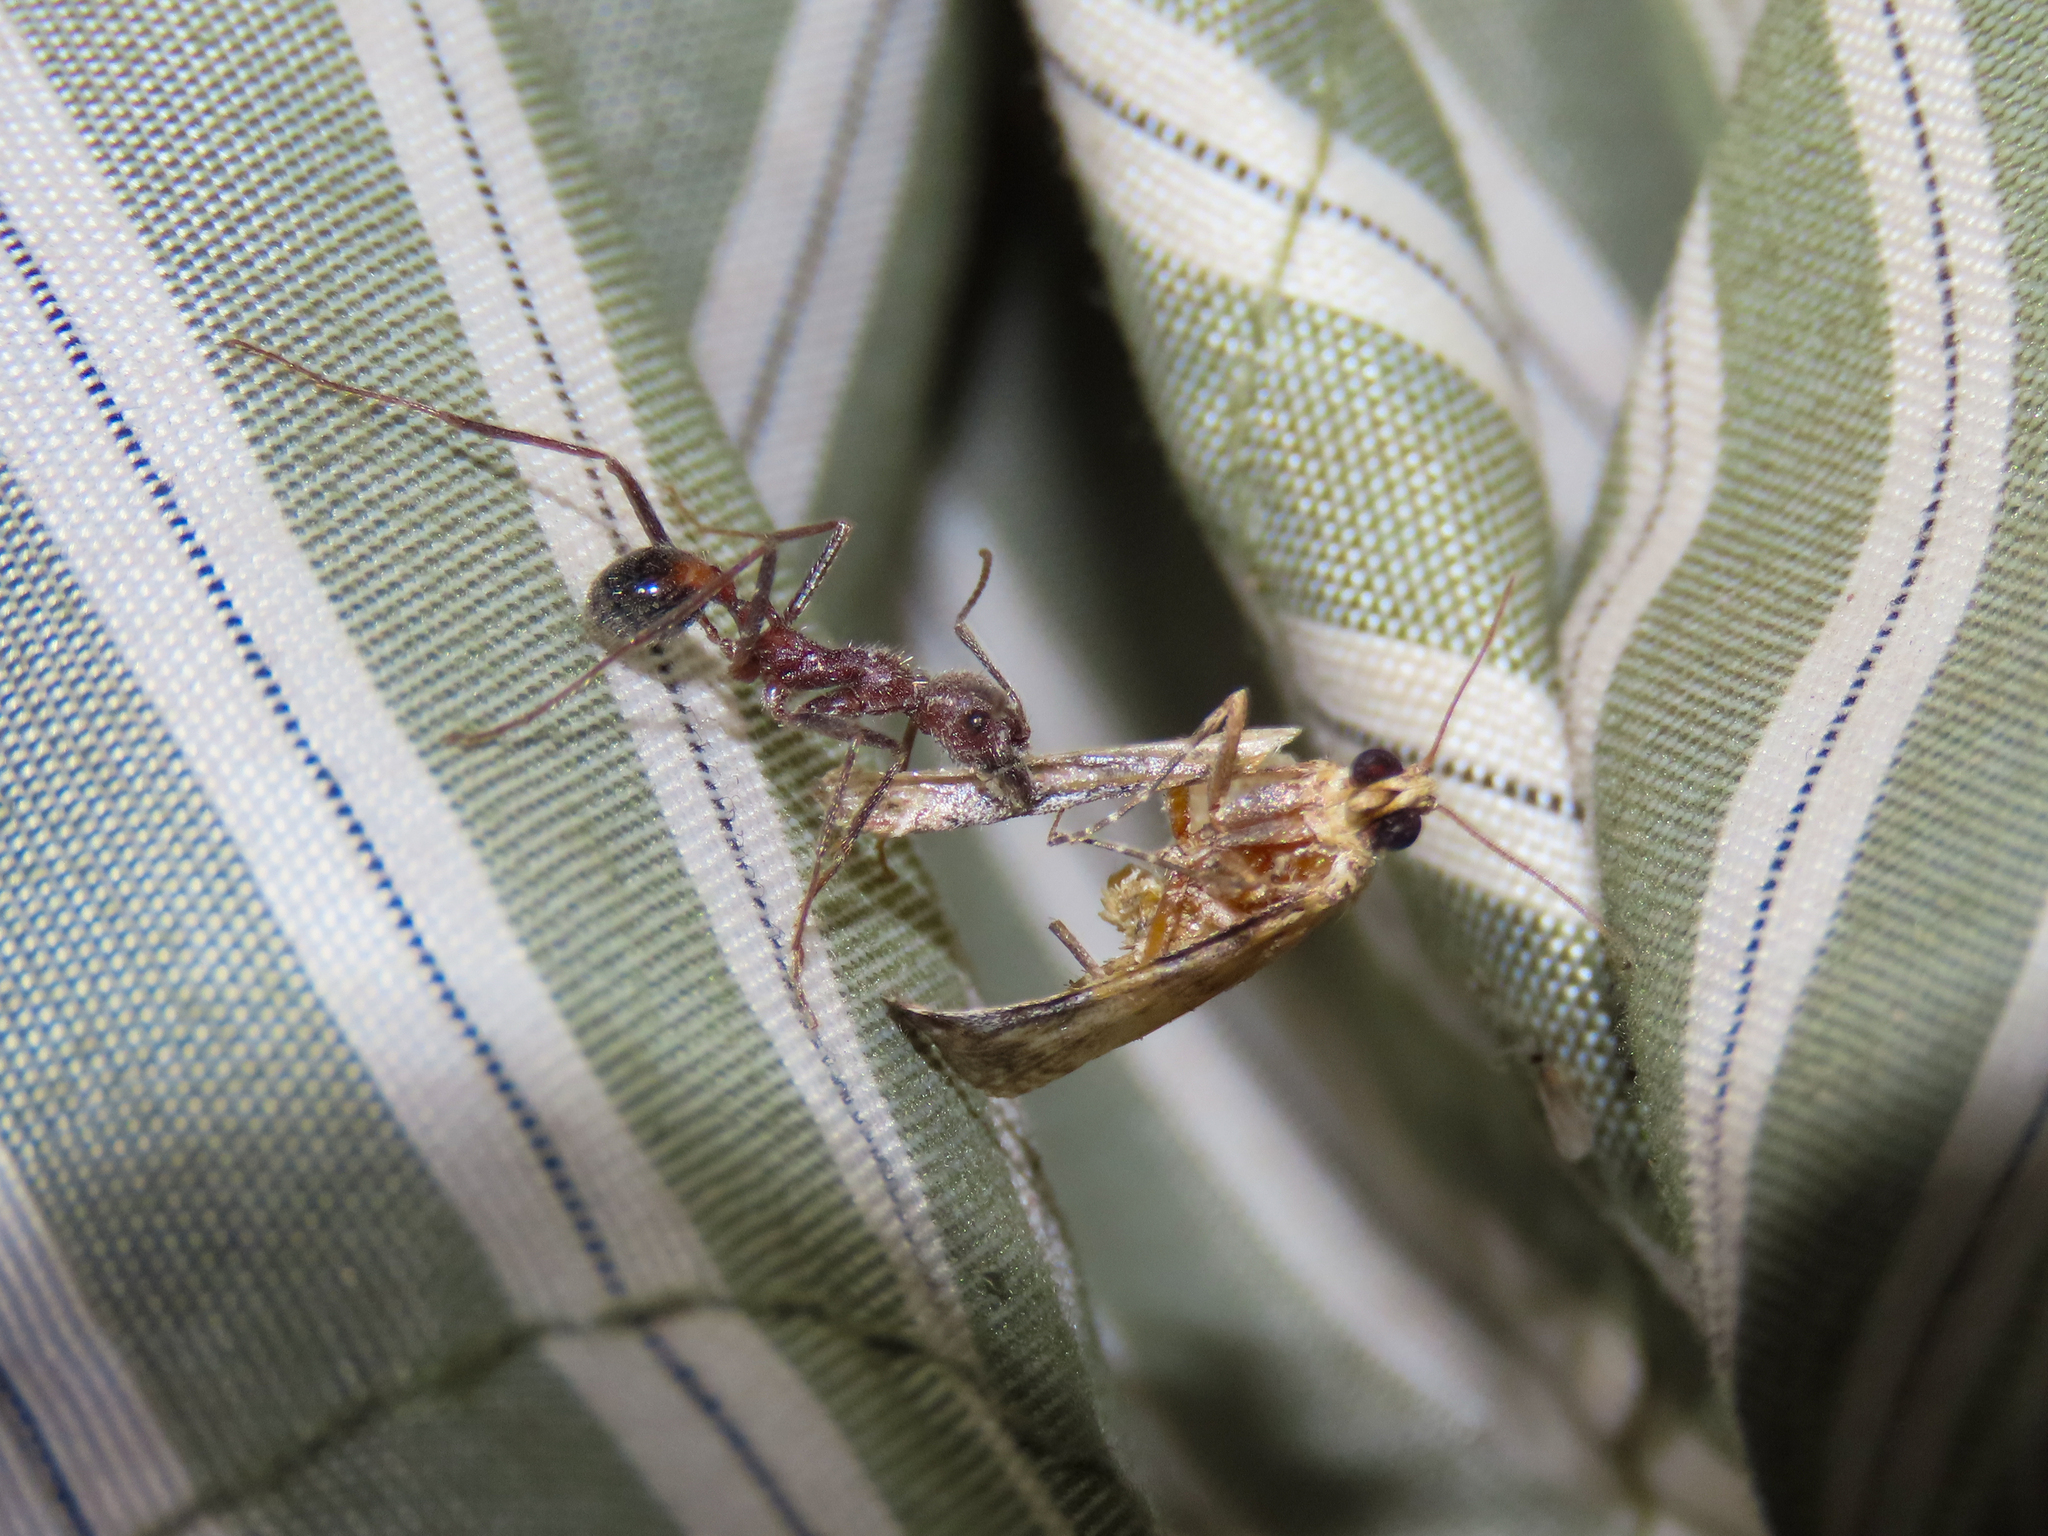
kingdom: Animalia
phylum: Arthropoda
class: Insecta
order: Hymenoptera
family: Formicidae
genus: Novomessor
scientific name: Novomessor albisetosa
